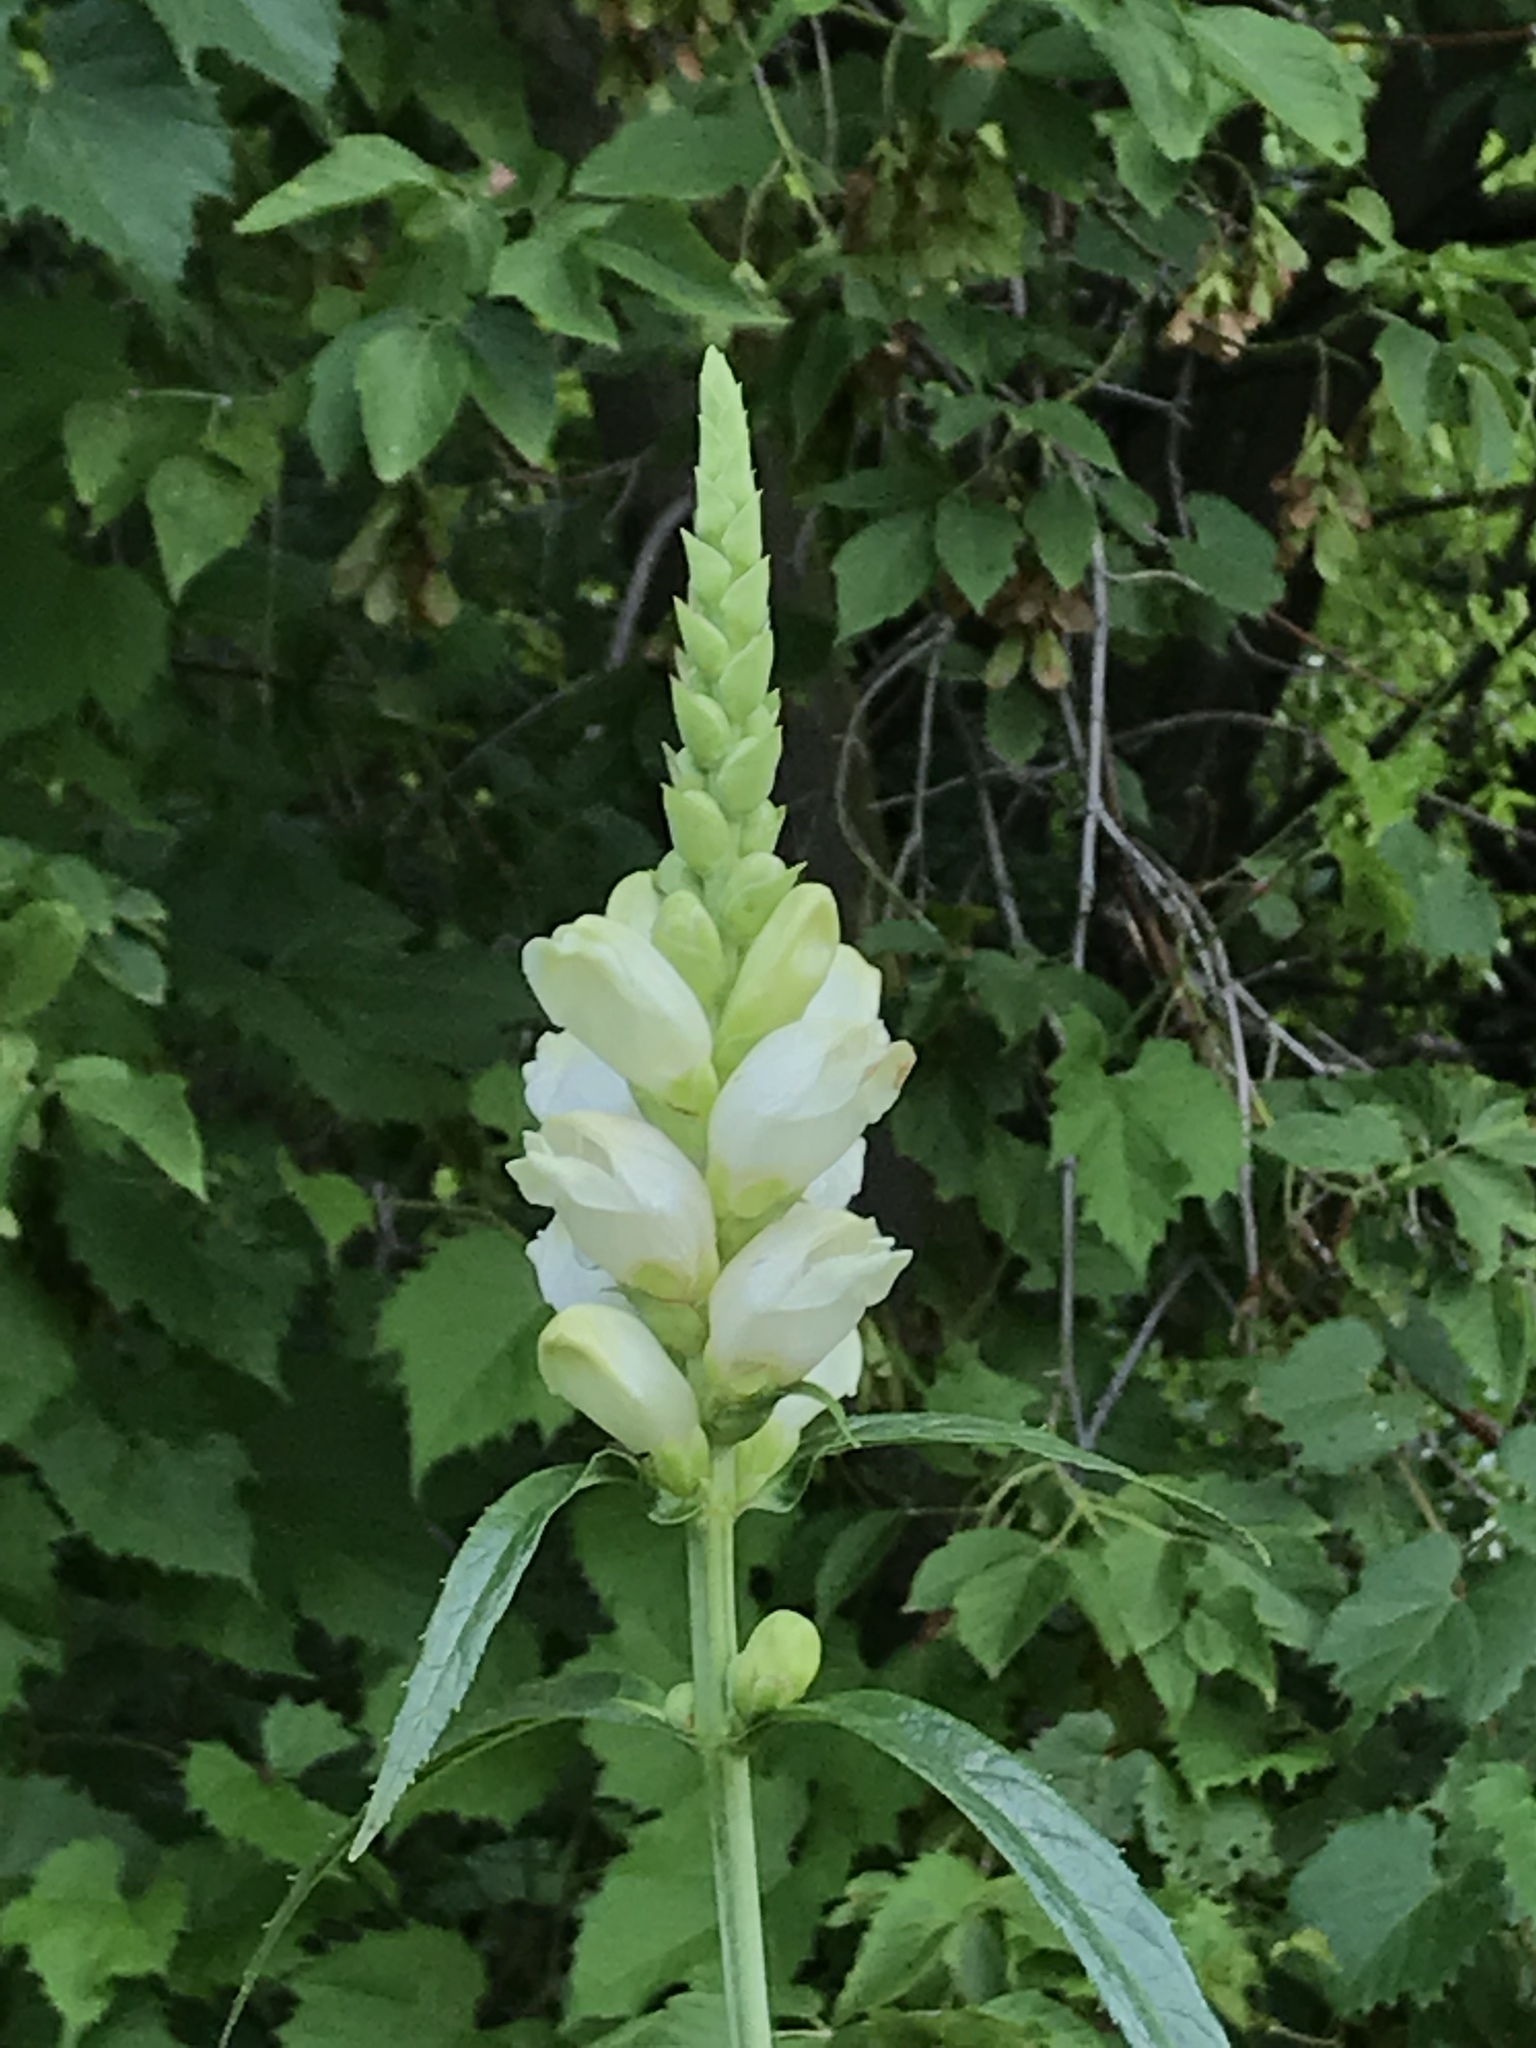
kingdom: Plantae
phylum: Tracheophyta
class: Magnoliopsida
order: Lamiales
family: Plantaginaceae
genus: Chelone
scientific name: Chelone glabra
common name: Snakehead
